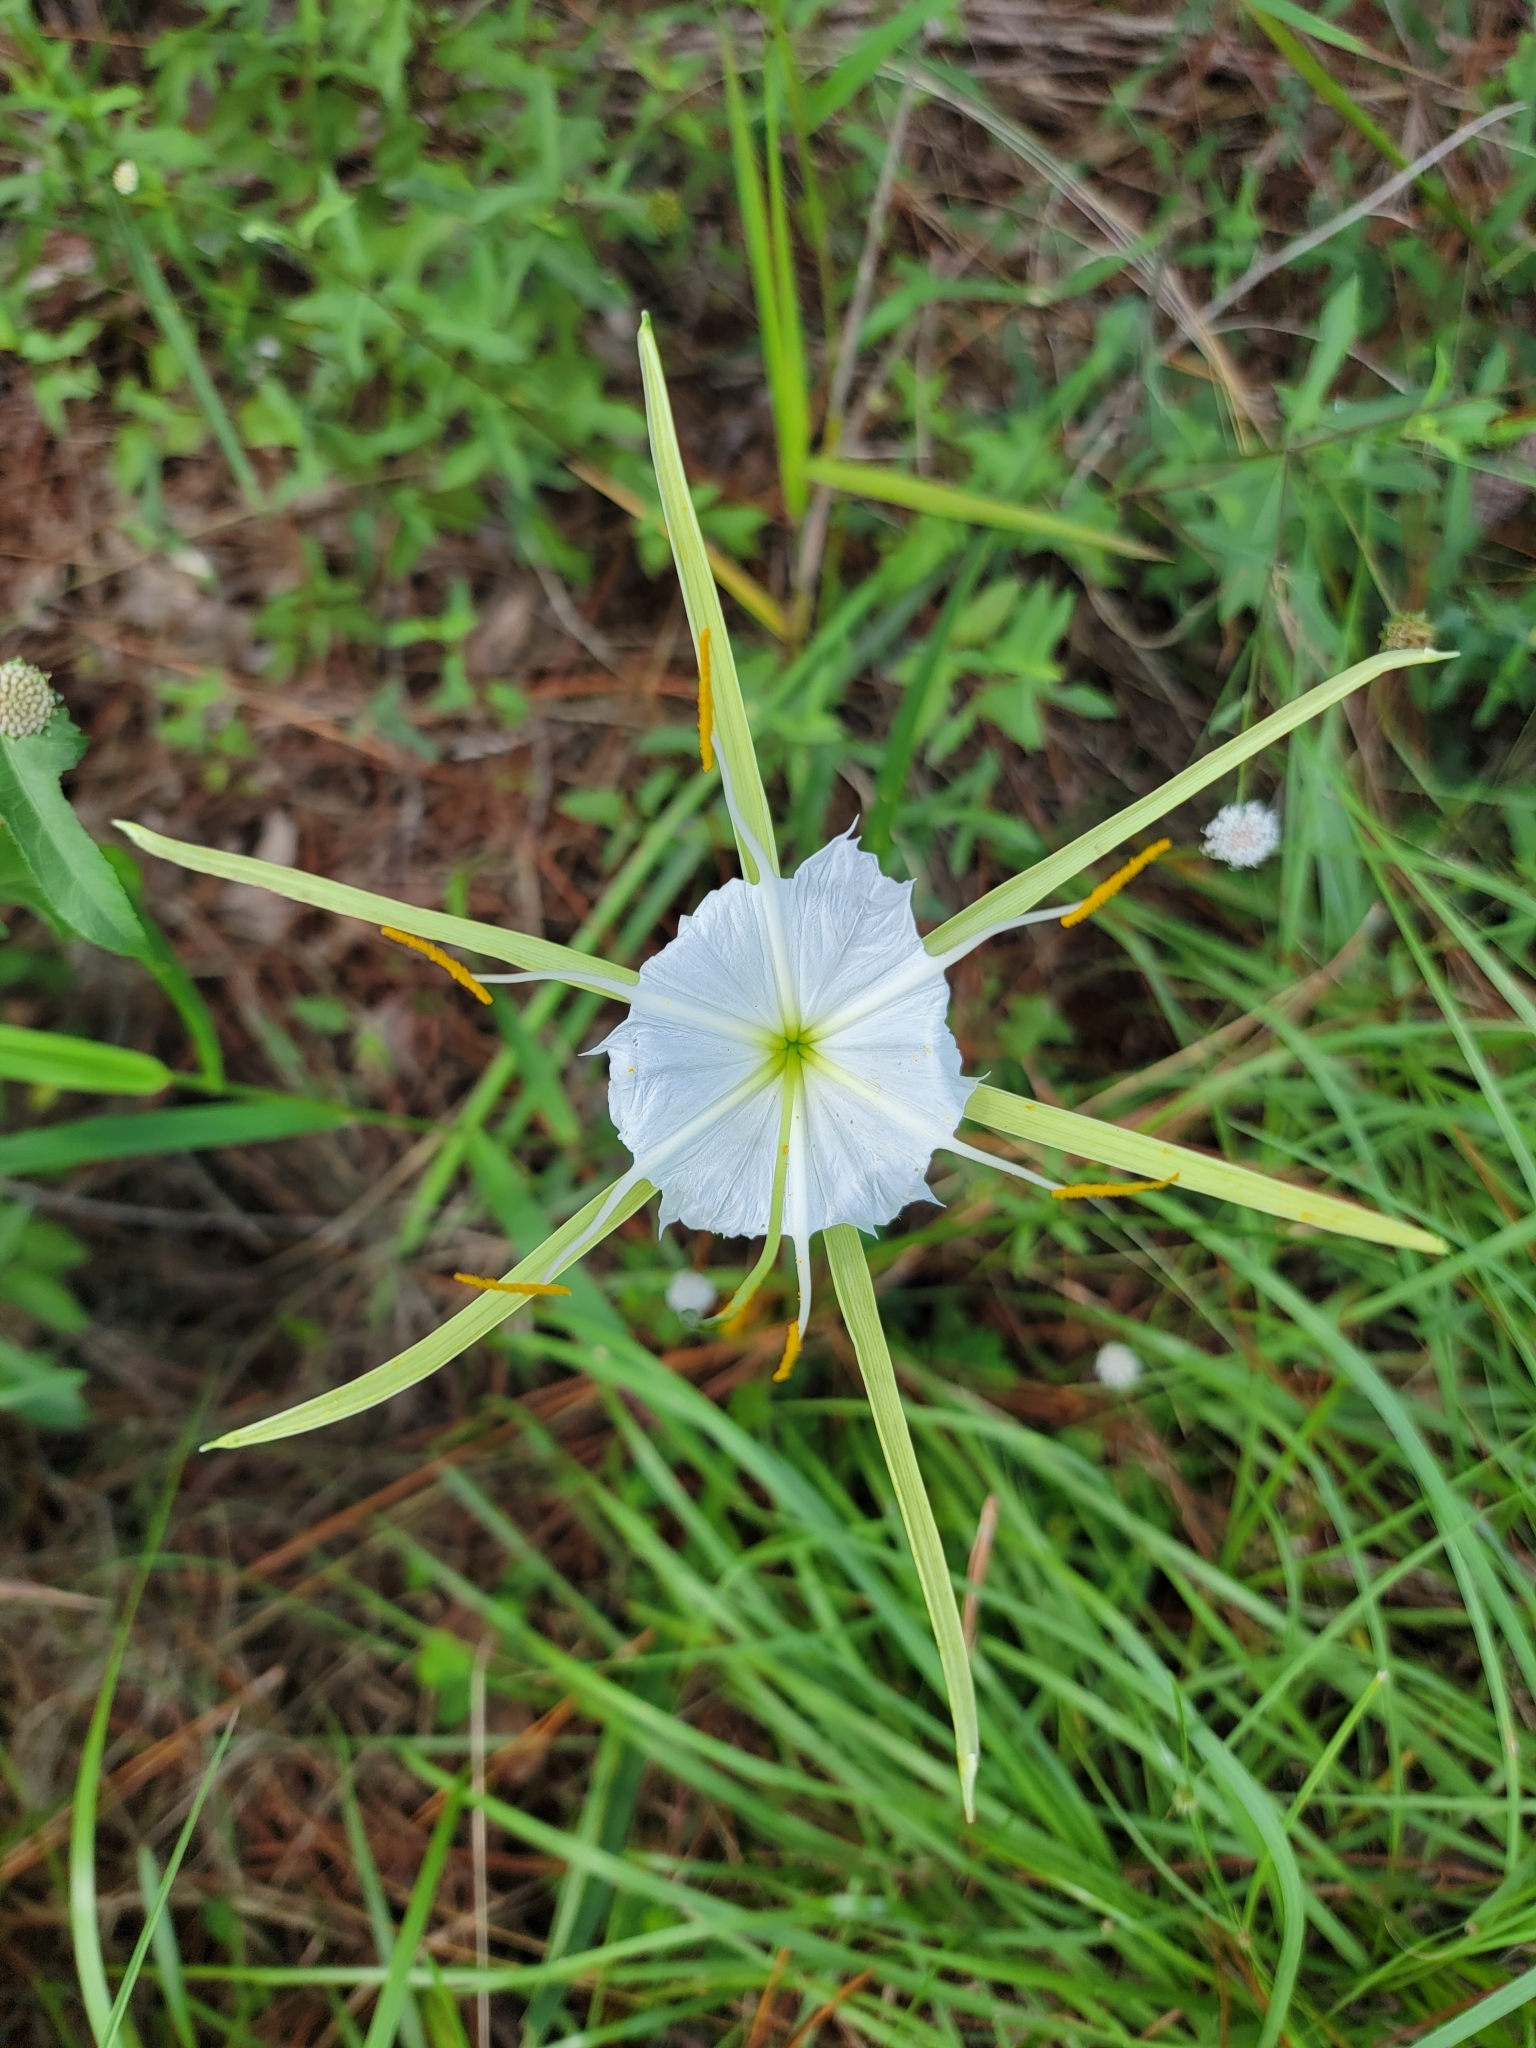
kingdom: Plantae
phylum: Tracheophyta
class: Liliopsida
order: Asparagales
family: Amaryllidaceae
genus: Hymenocallis
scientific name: Hymenocallis palmeri
